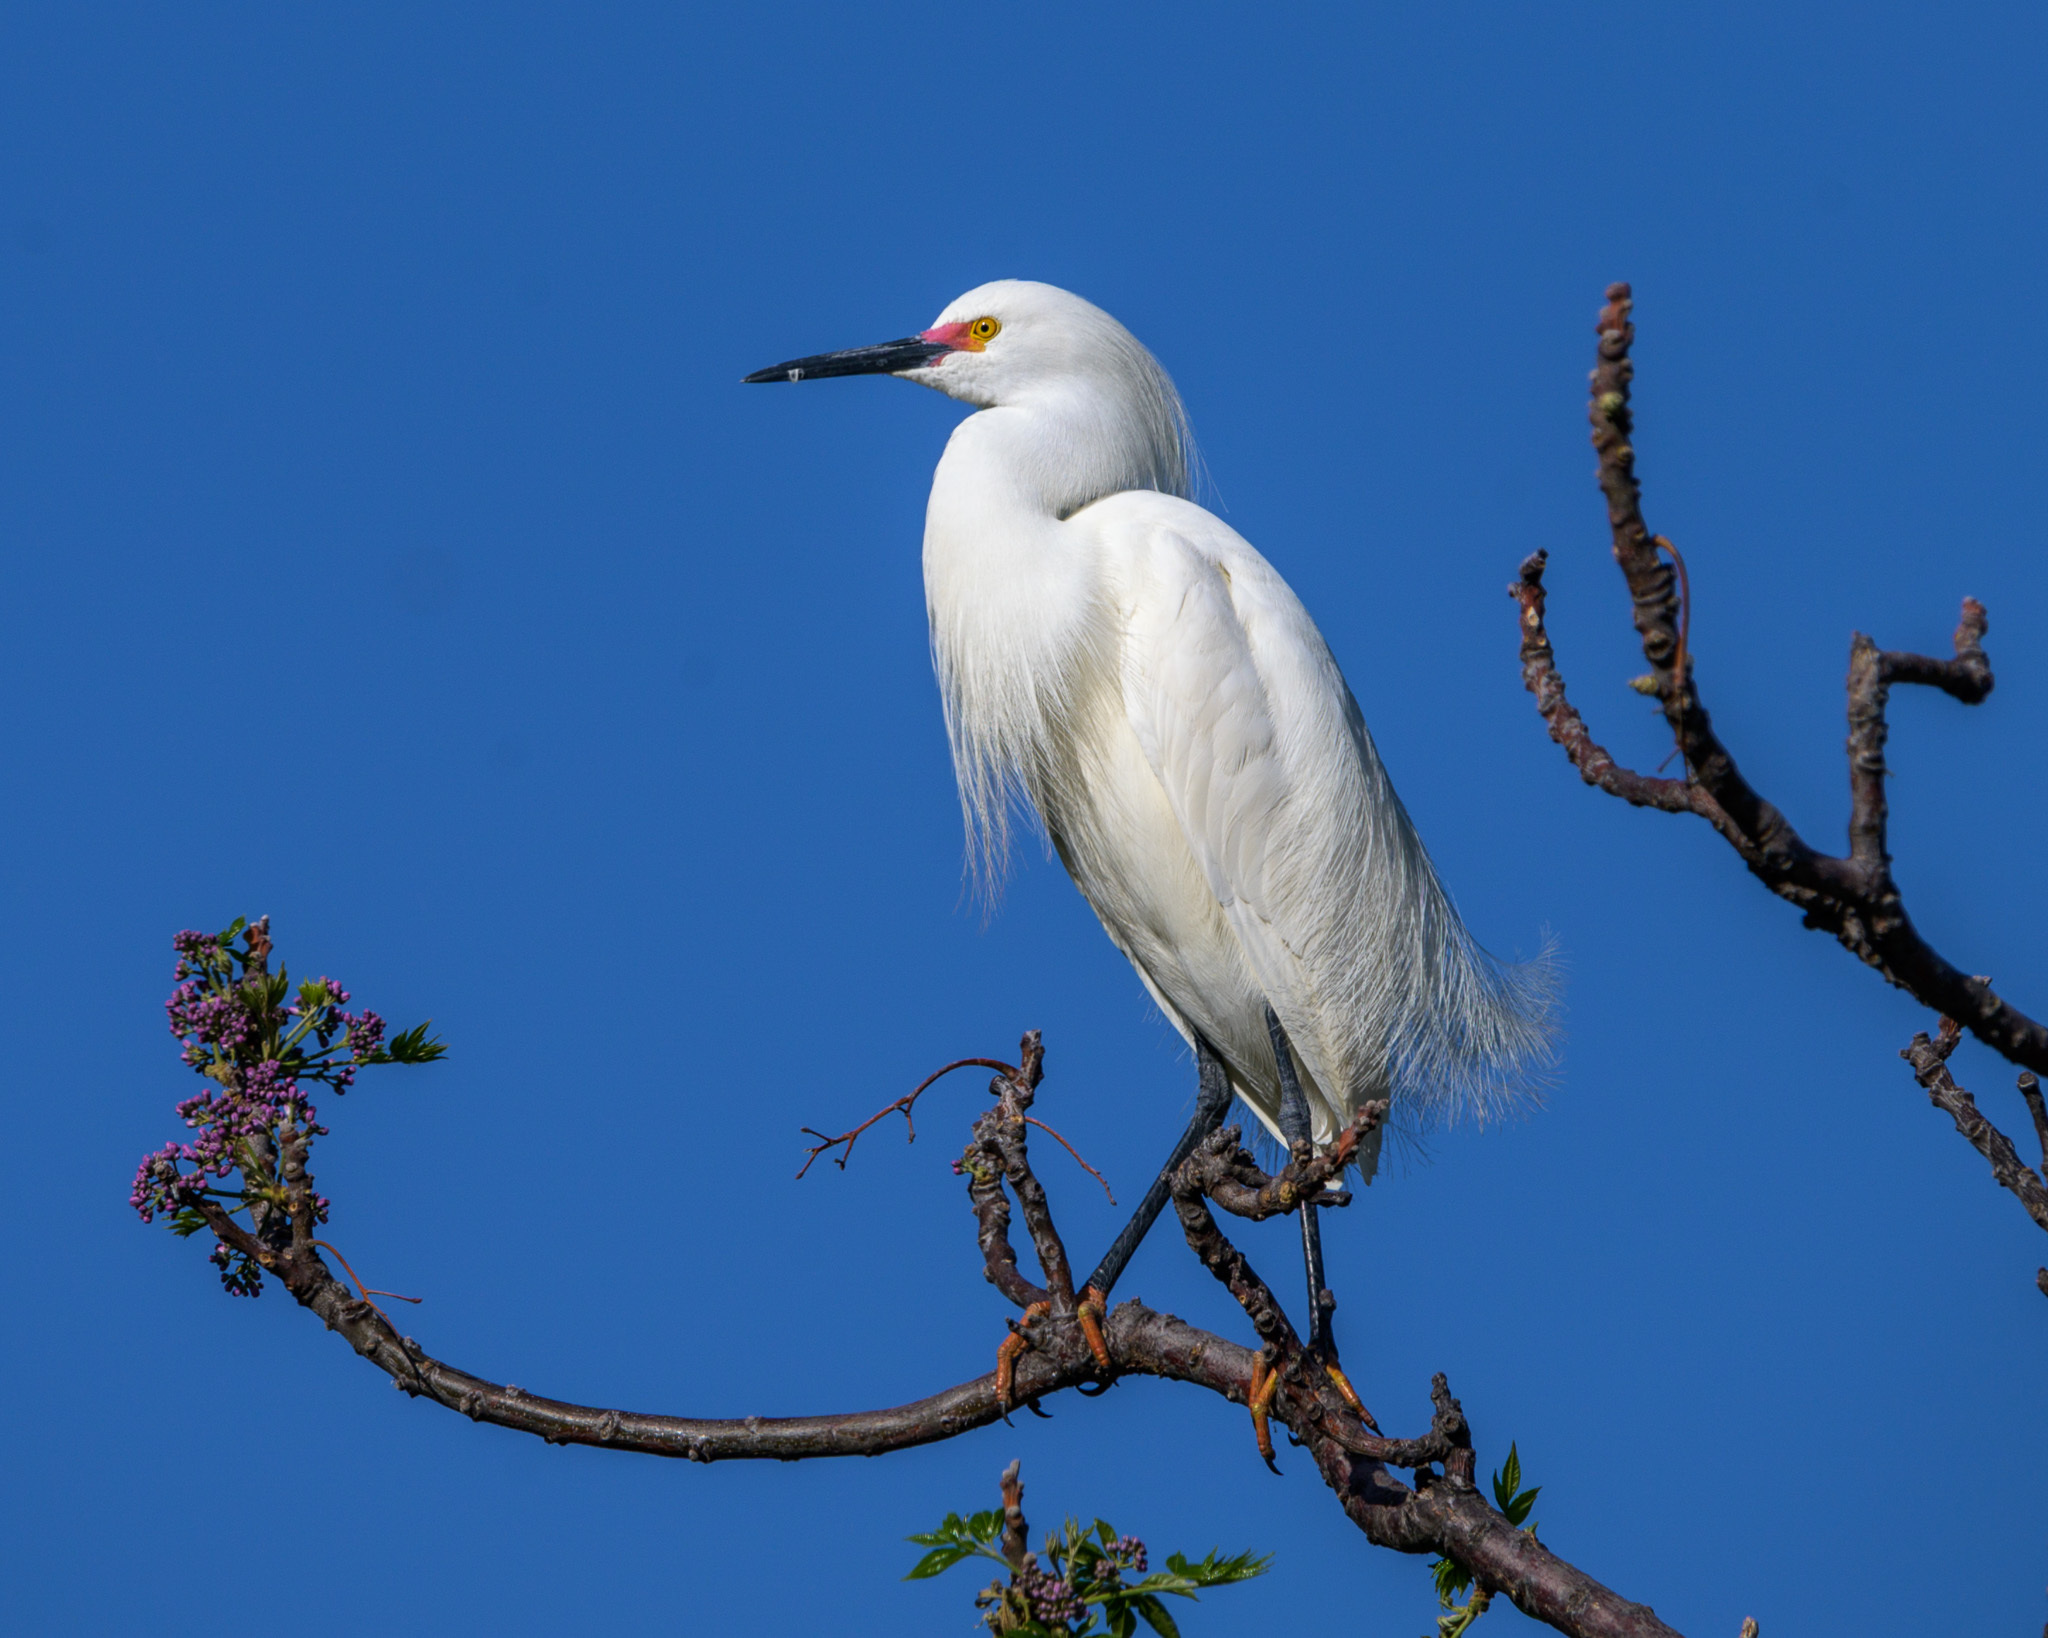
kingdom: Animalia
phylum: Chordata
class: Aves
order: Pelecaniformes
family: Ardeidae
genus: Egretta
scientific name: Egretta thula
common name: Snowy egret
